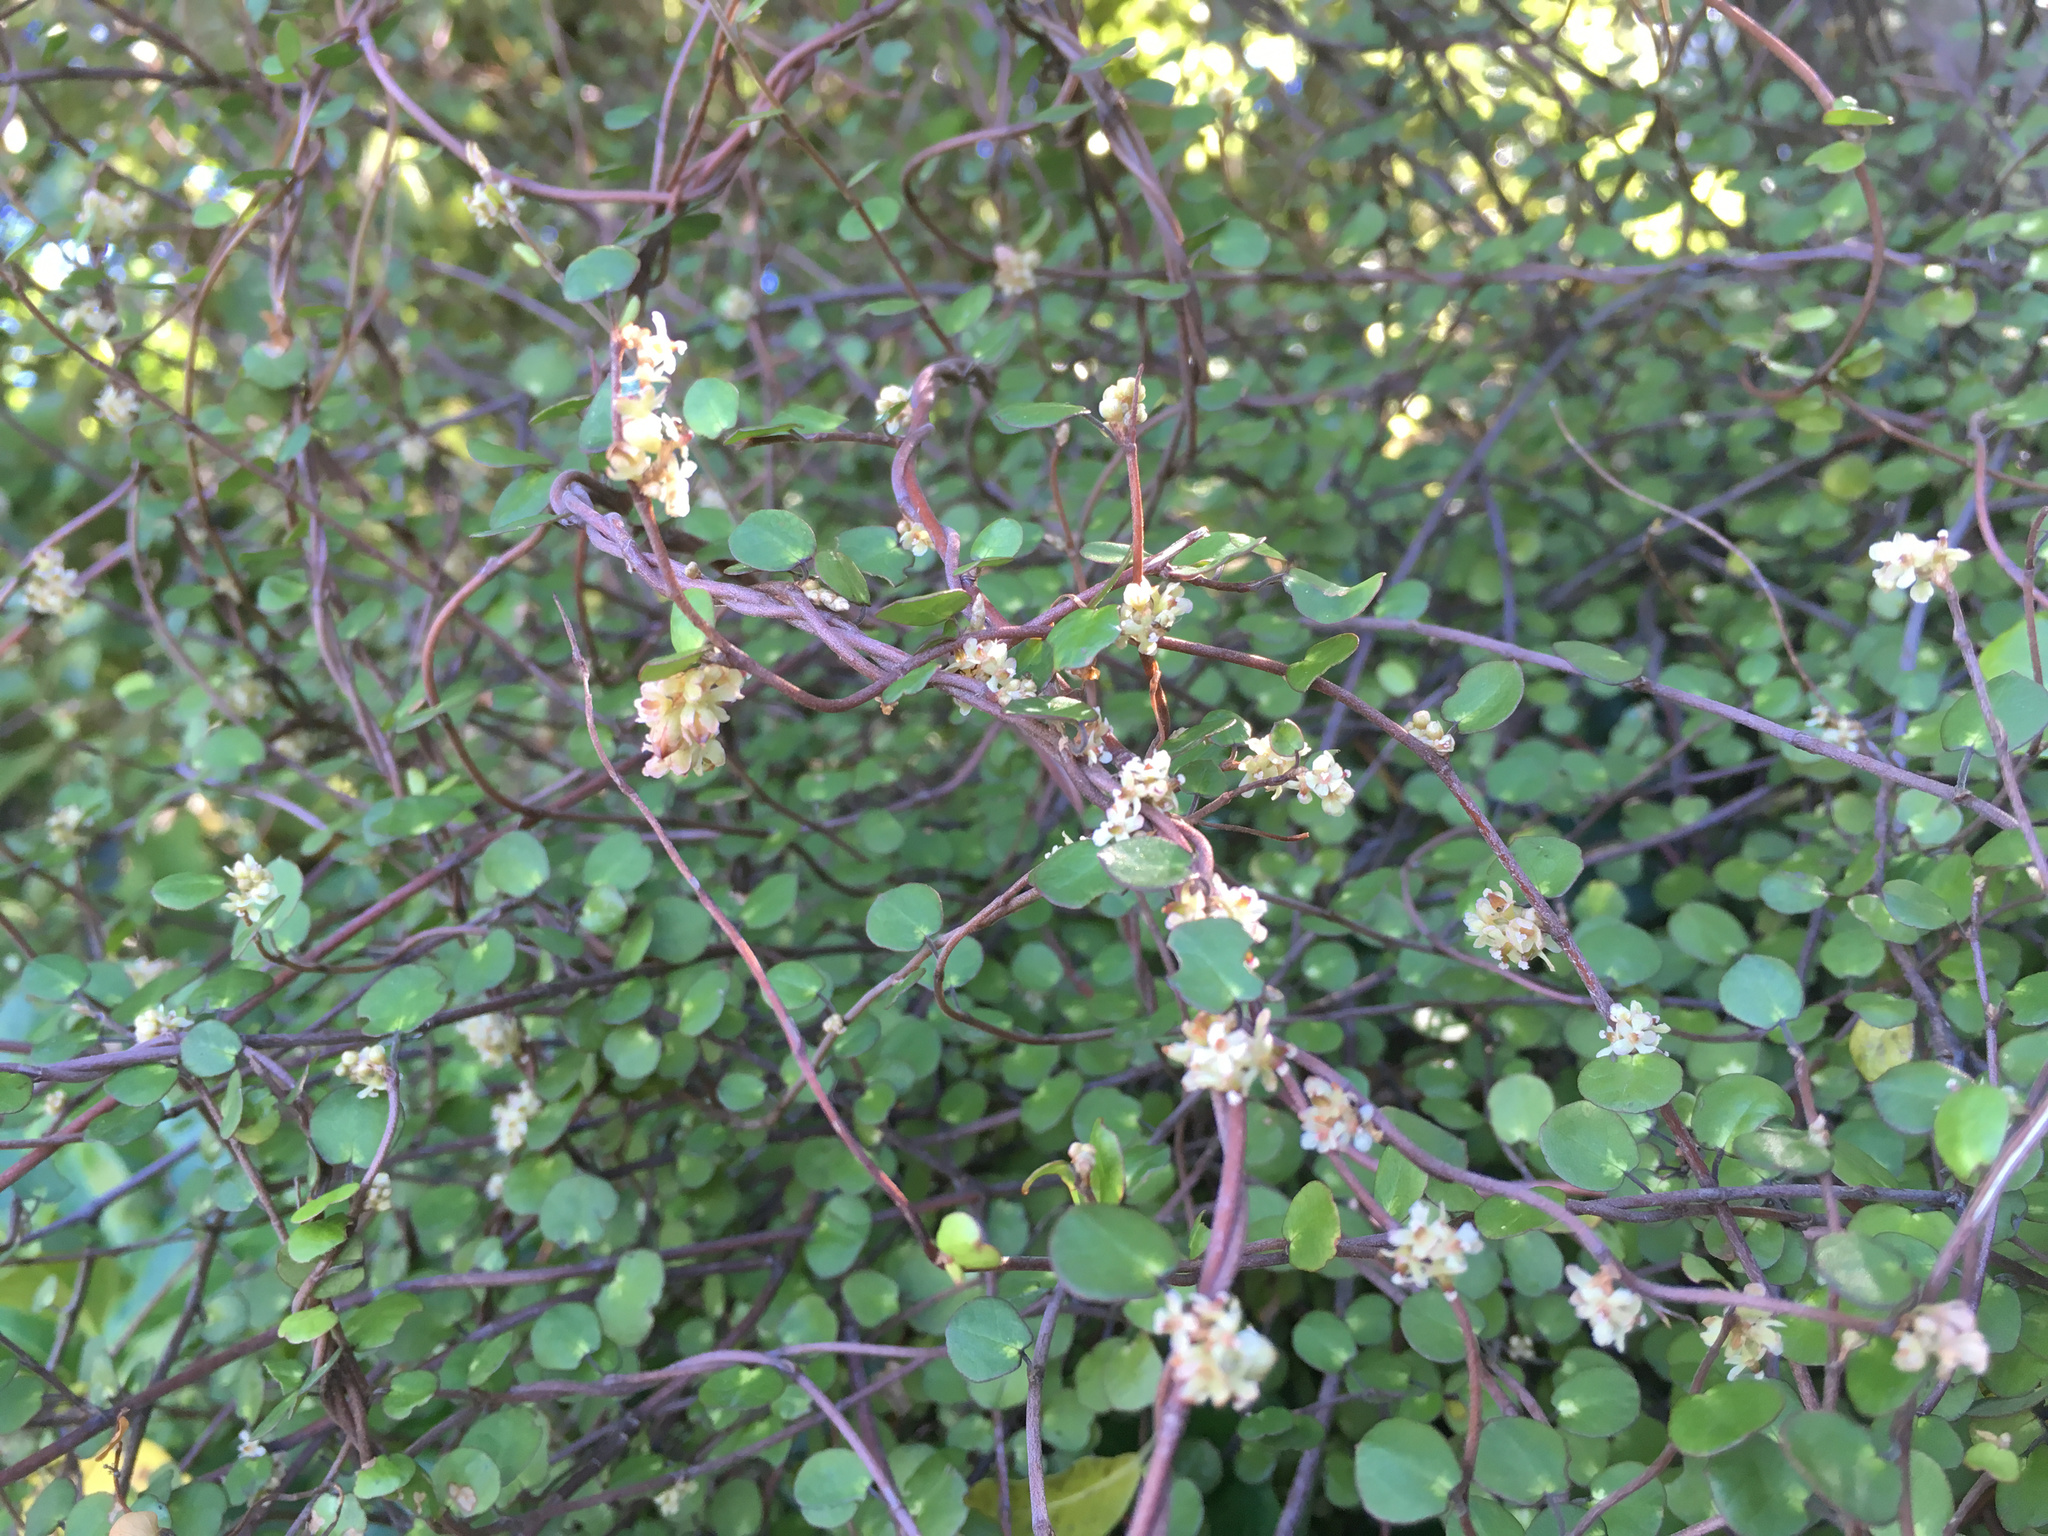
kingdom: Plantae
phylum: Tracheophyta
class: Magnoliopsida
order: Caryophyllales
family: Polygonaceae
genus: Muehlenbeckia
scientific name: Muehlenbeckia complexa
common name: Wireplant
